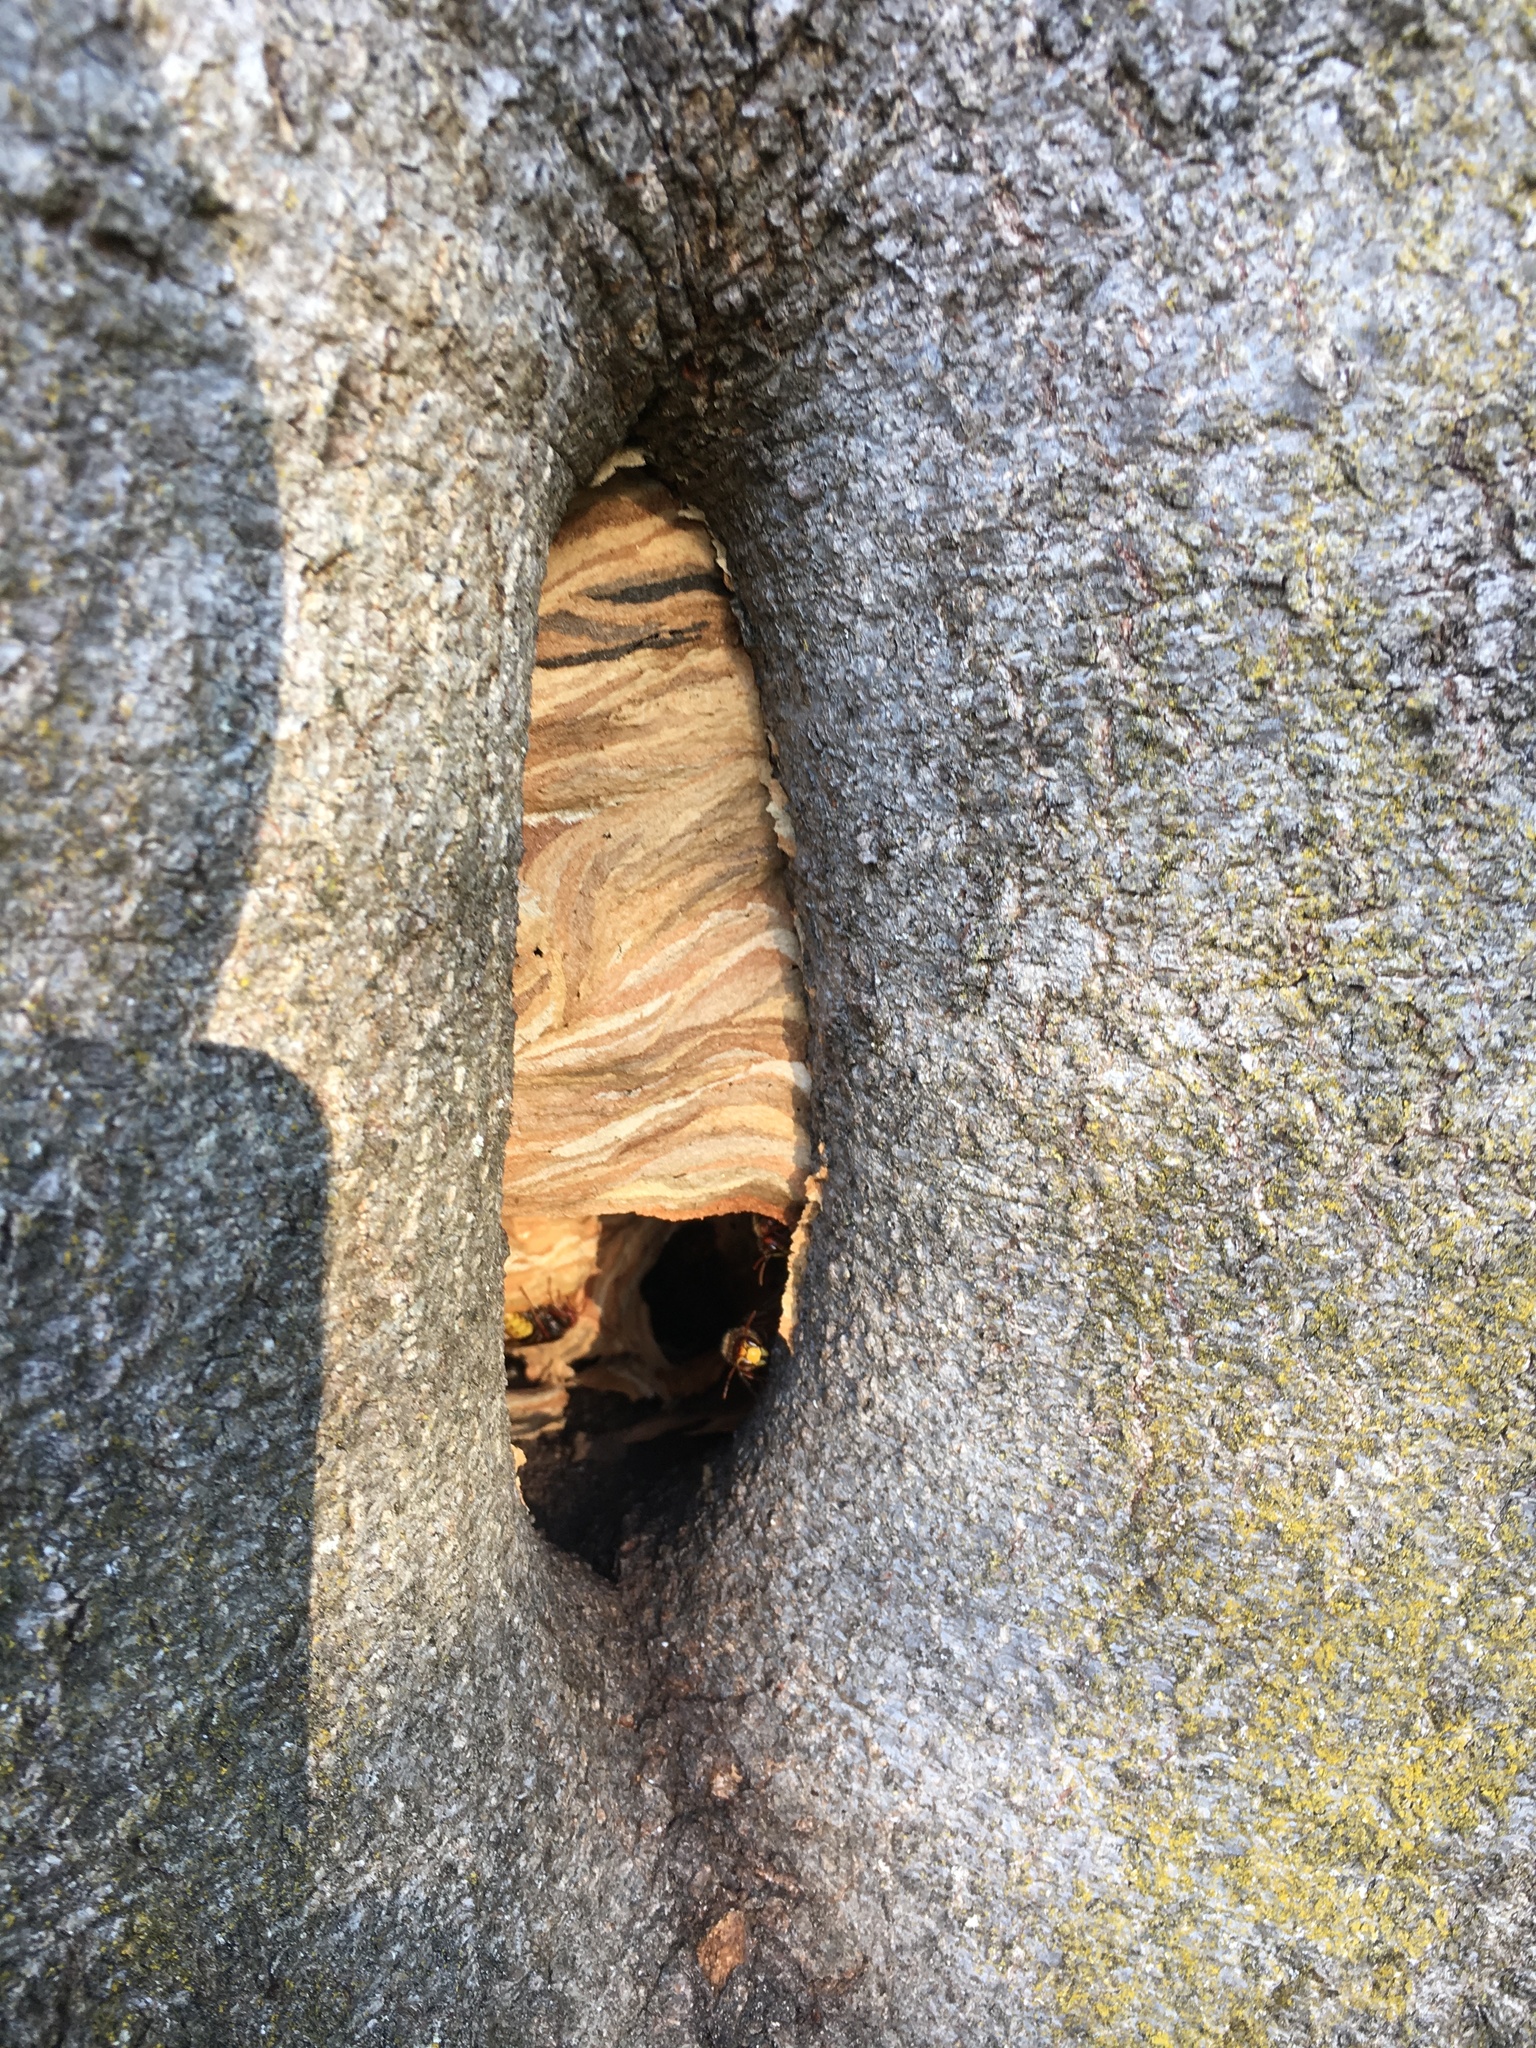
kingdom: Animalia
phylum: Arthropoda
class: Insecta
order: Hymenoptera
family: Vespidae
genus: Vespa
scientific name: Vespa crabro
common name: Hornet
